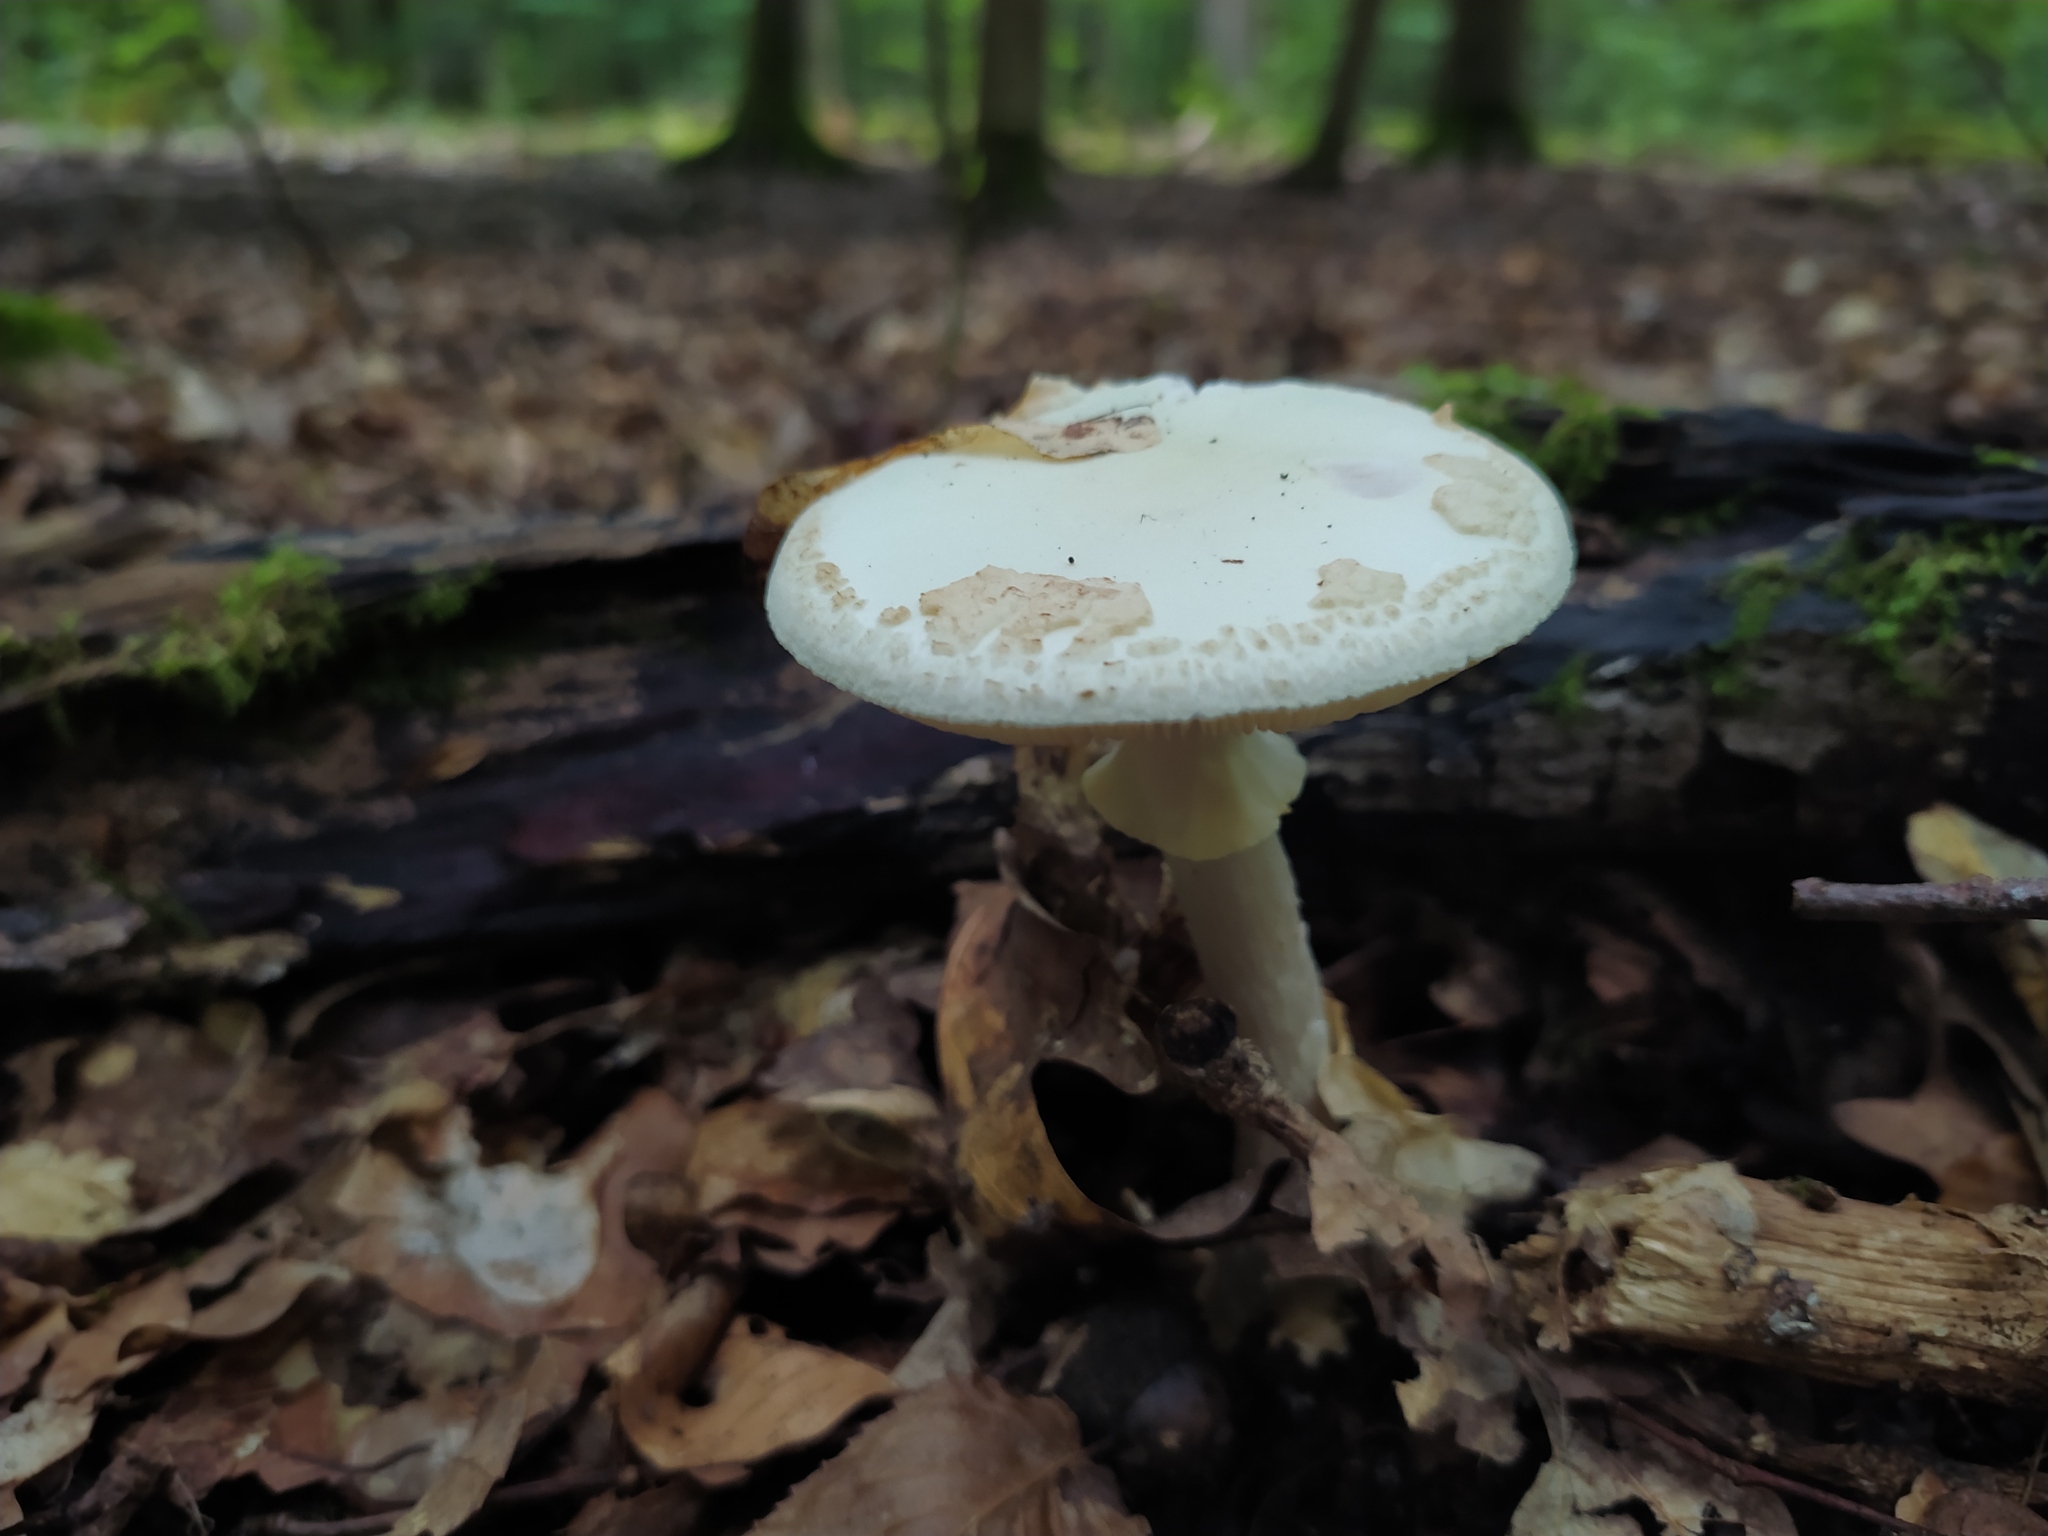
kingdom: Fungi
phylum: Basidiomycota
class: Agaricomycetes
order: Agaricales
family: Amanitaceae
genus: Amanita
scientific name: Amanita citrina
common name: False death-cap
